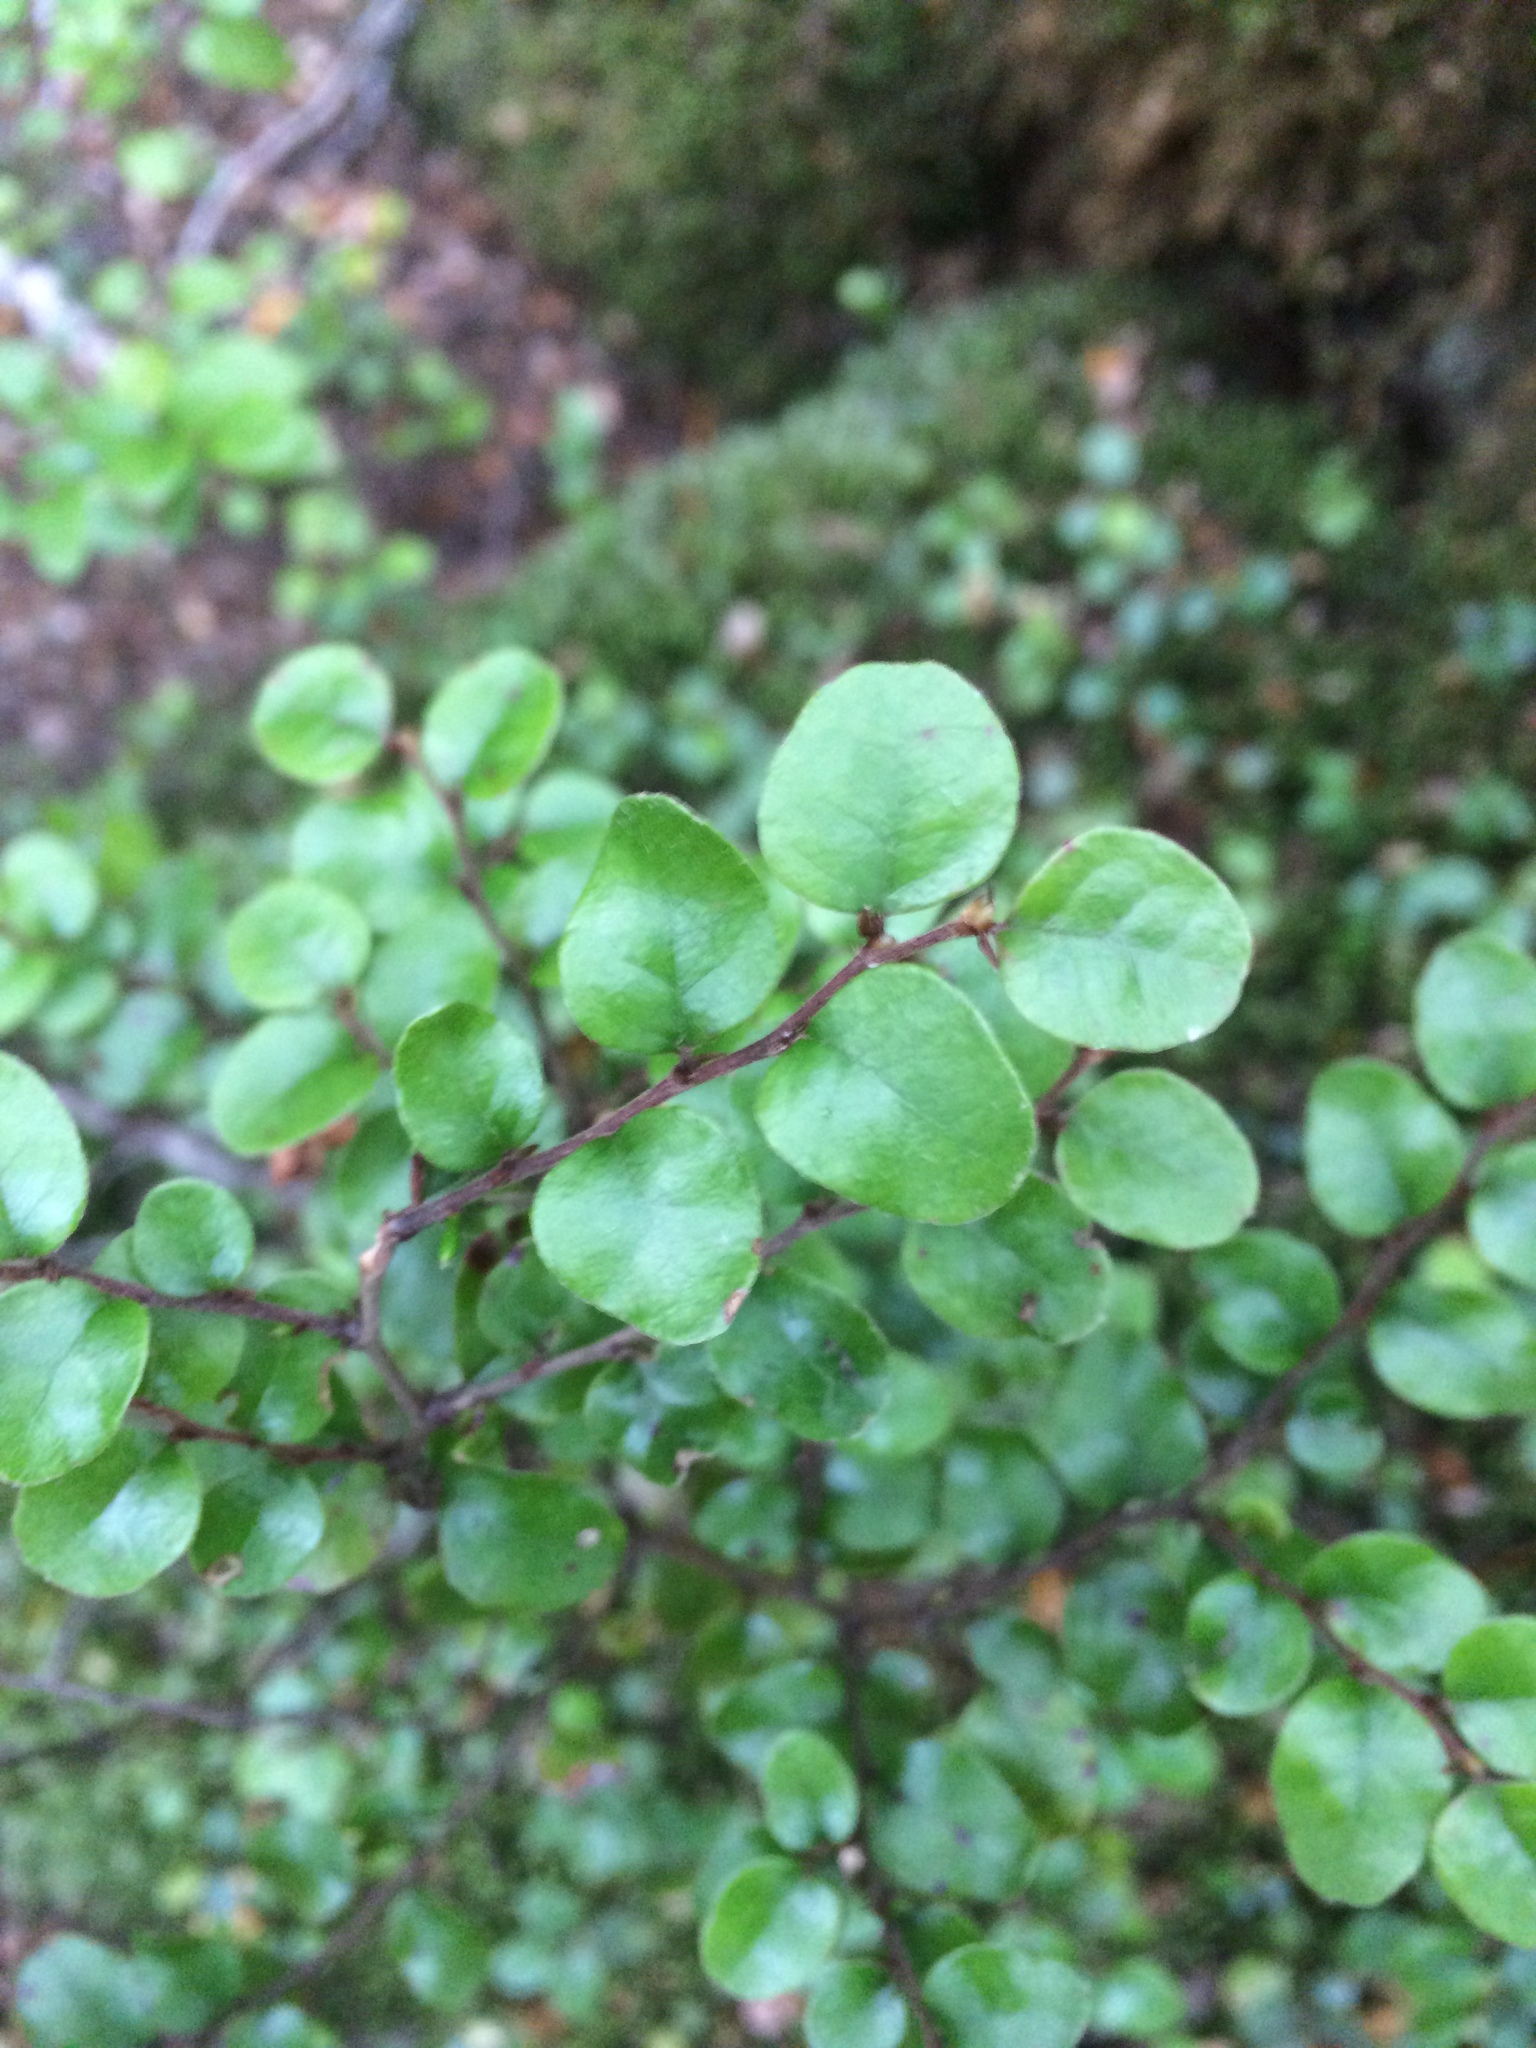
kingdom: Plantae
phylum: Tracheophyta
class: Magnoliopsida
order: Fagales
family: Nothofagaceae
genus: Nothofagus
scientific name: Nothofagus cliffortioides
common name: Mountain beech
